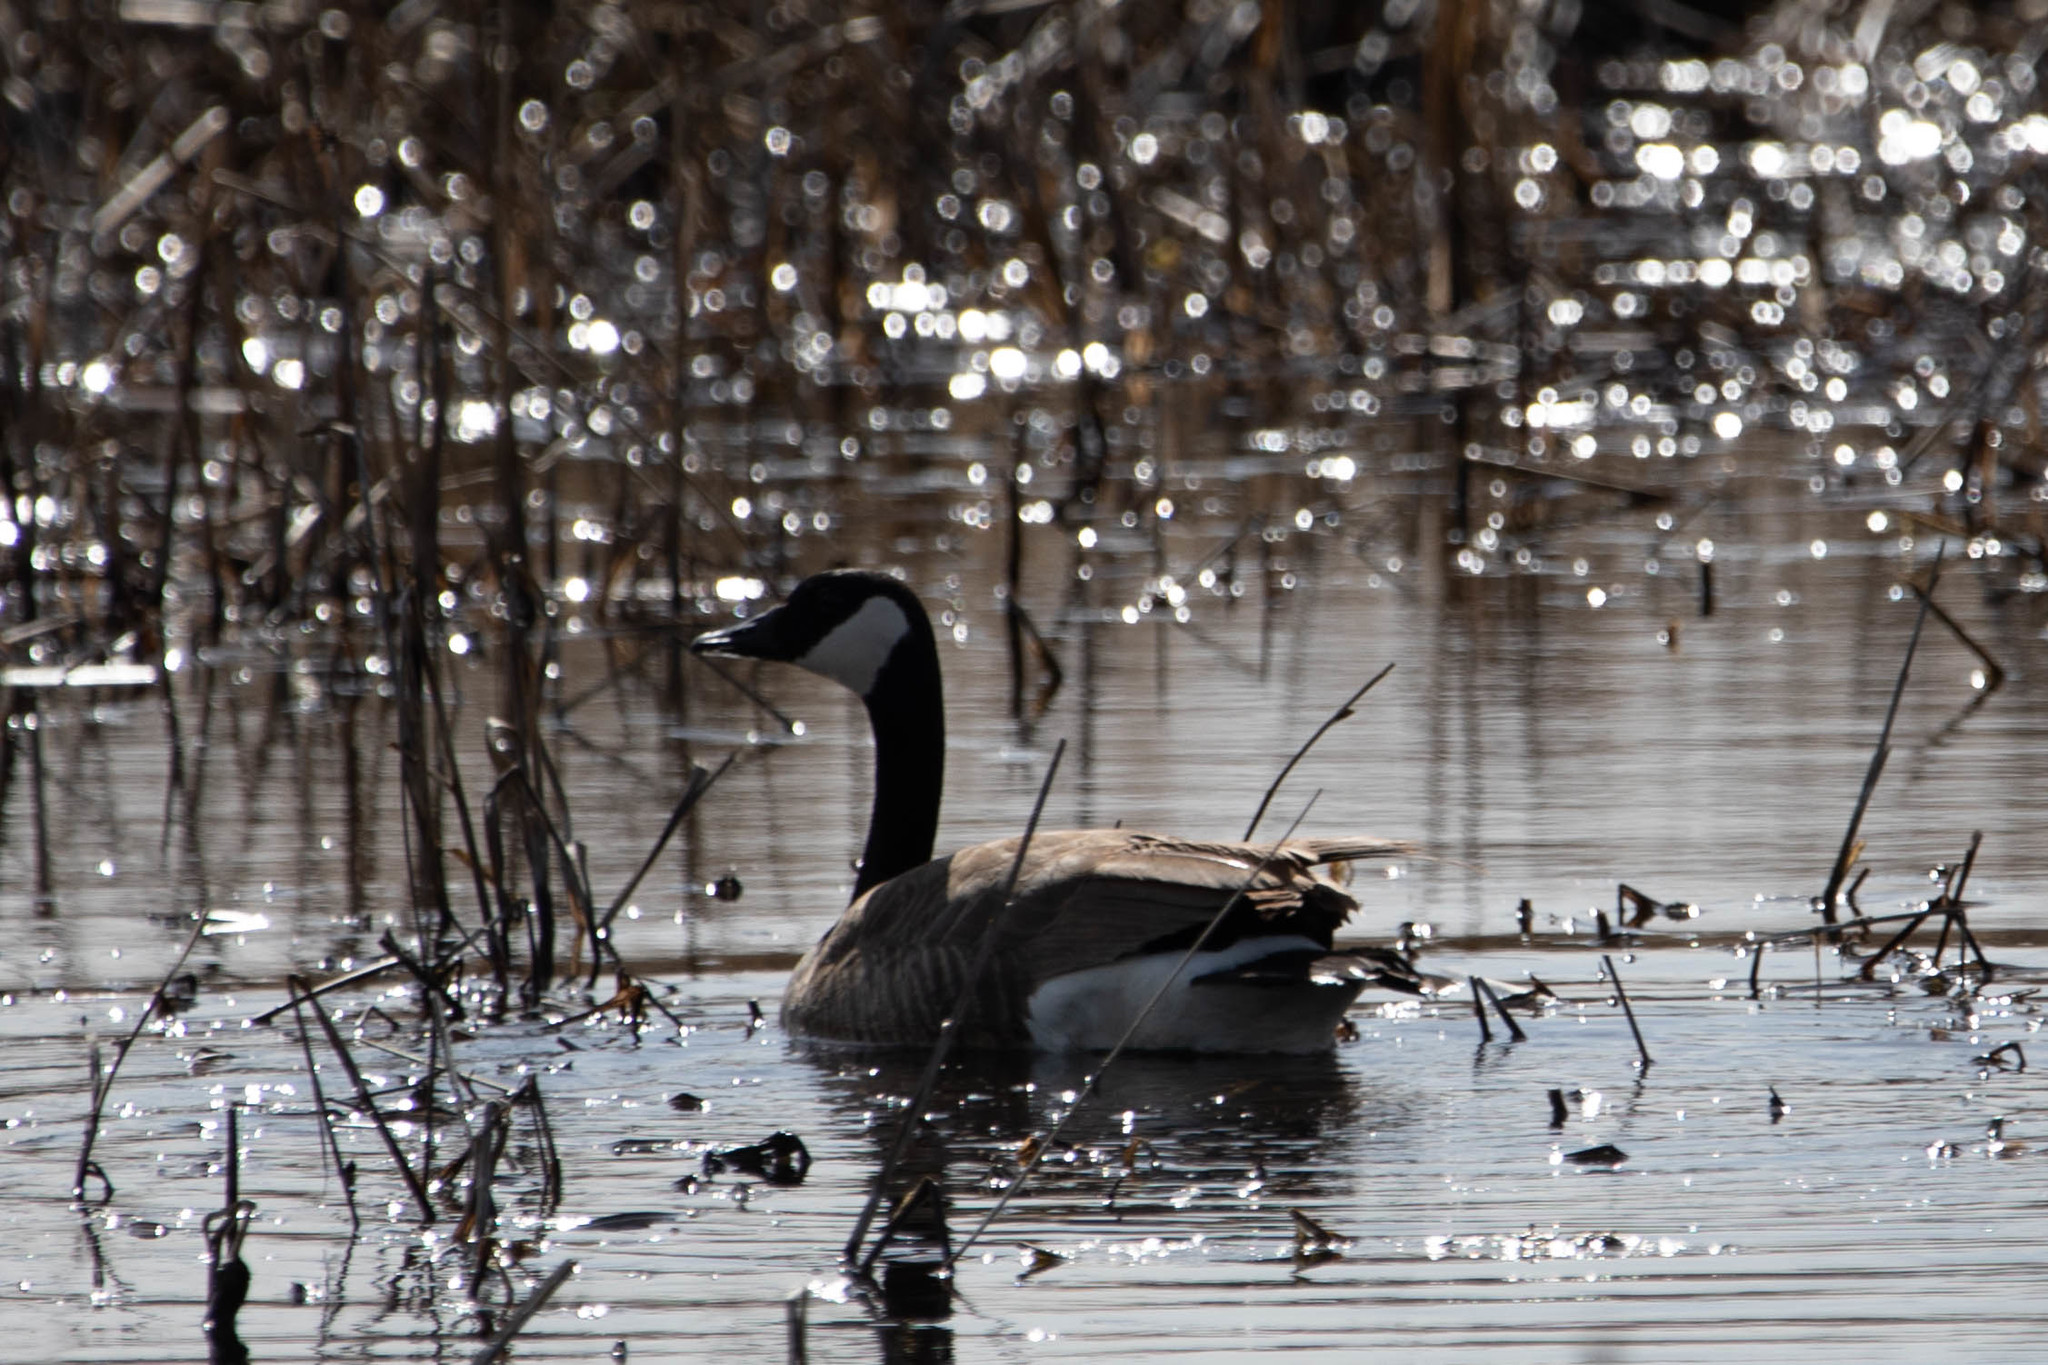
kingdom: Animalia
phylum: Chordata
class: Aves
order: Anseriformes
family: Anatidae
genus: Branta
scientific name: Branta canadensis
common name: Canada goose
